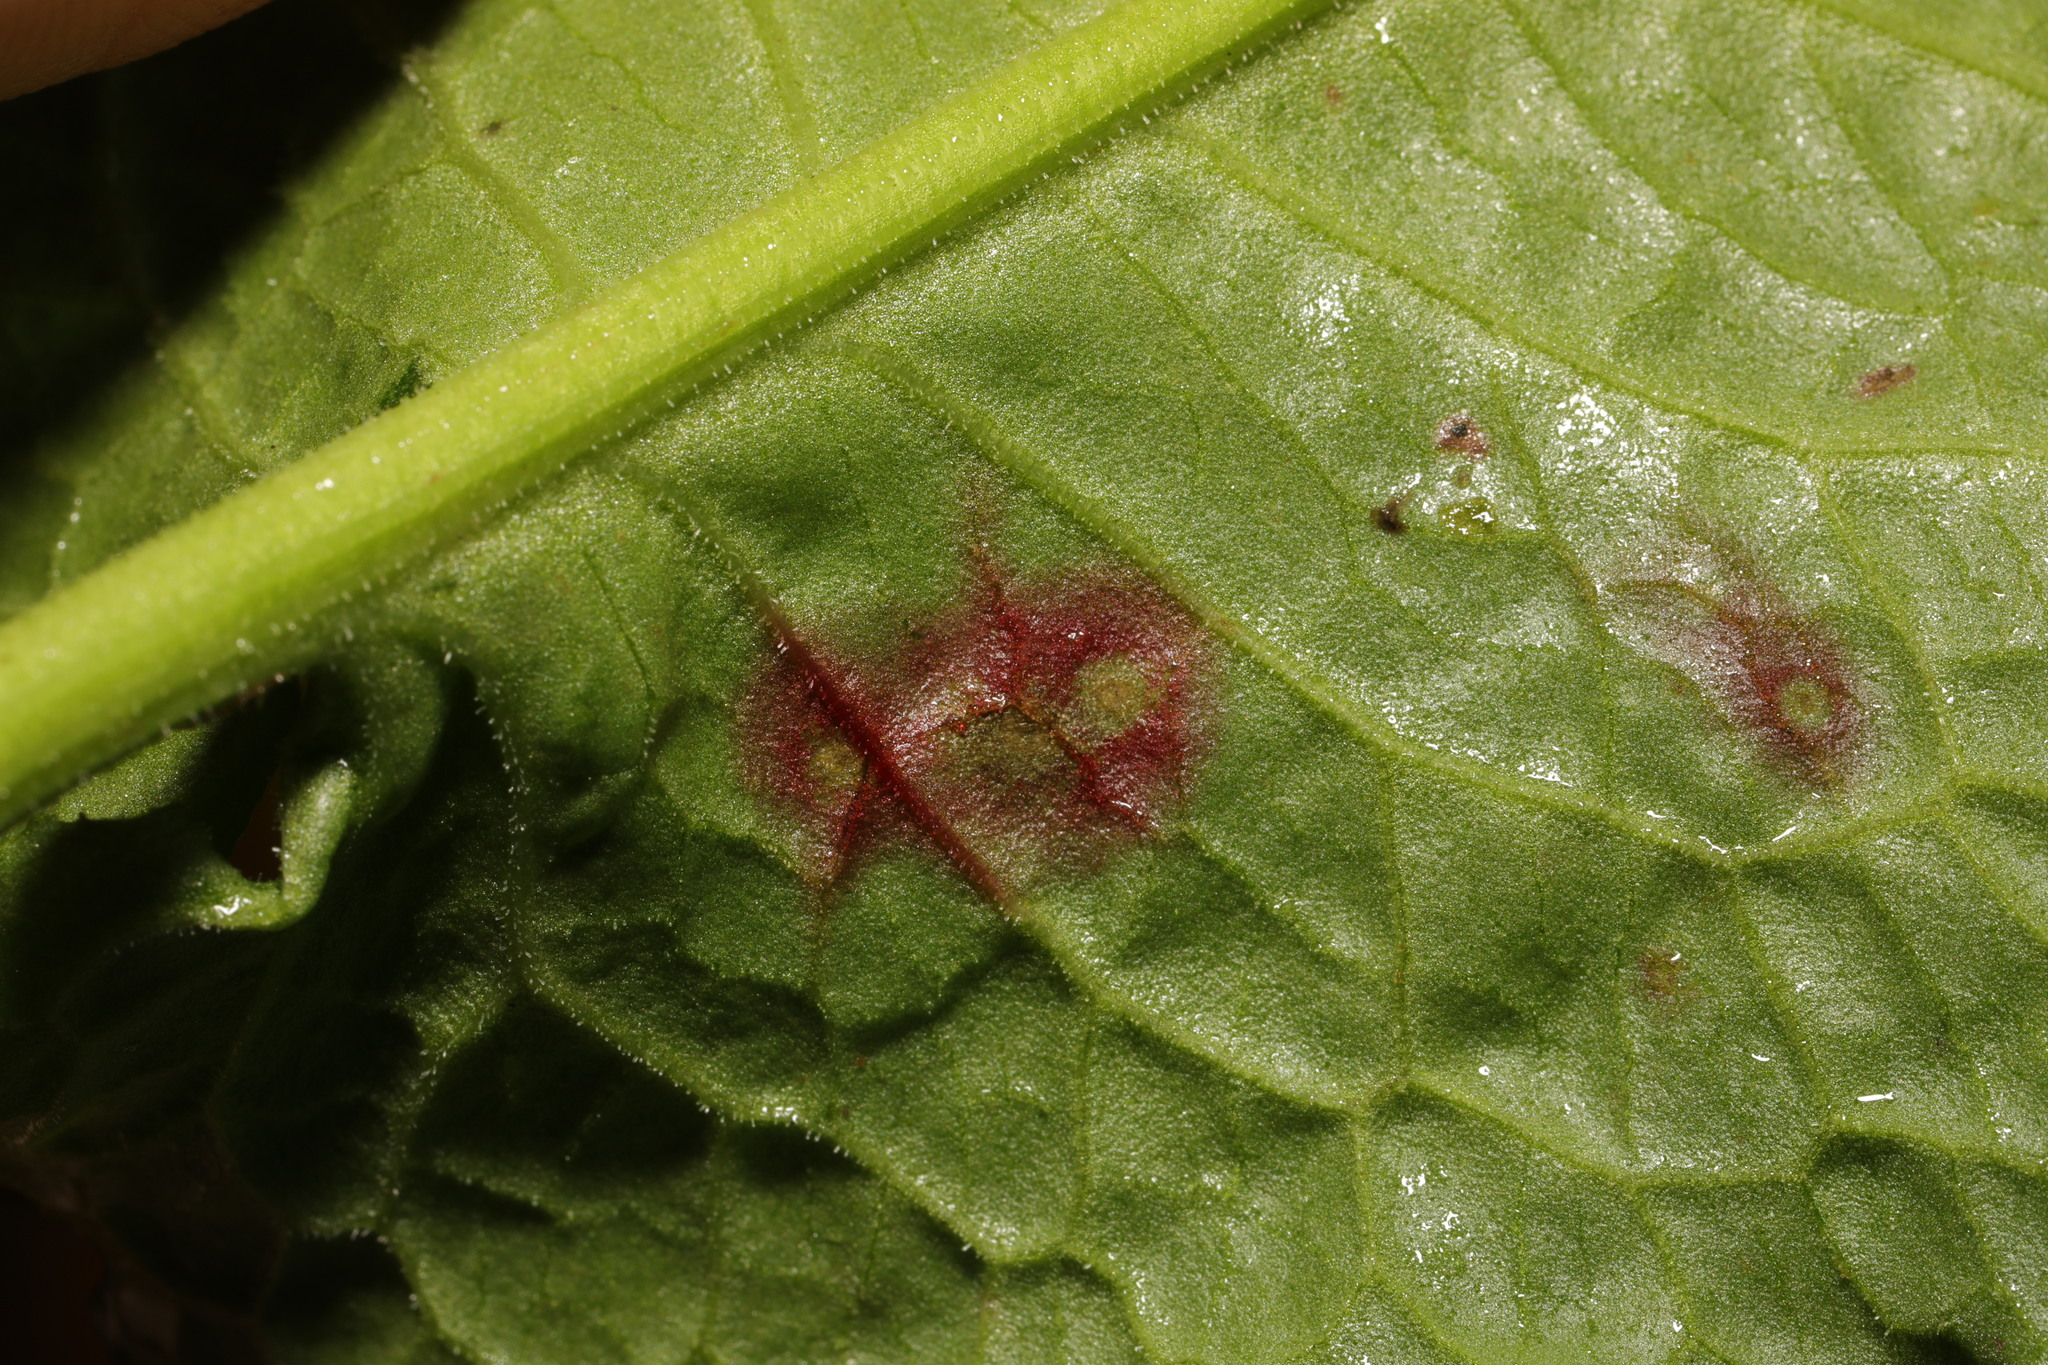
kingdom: Fungi
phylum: Ascomycota
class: Dothideomycetes
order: Mycosphaerellales
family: Mycosphaerellaceae
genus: Ramularia
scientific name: Ramularia rubella
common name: Red dock spot
